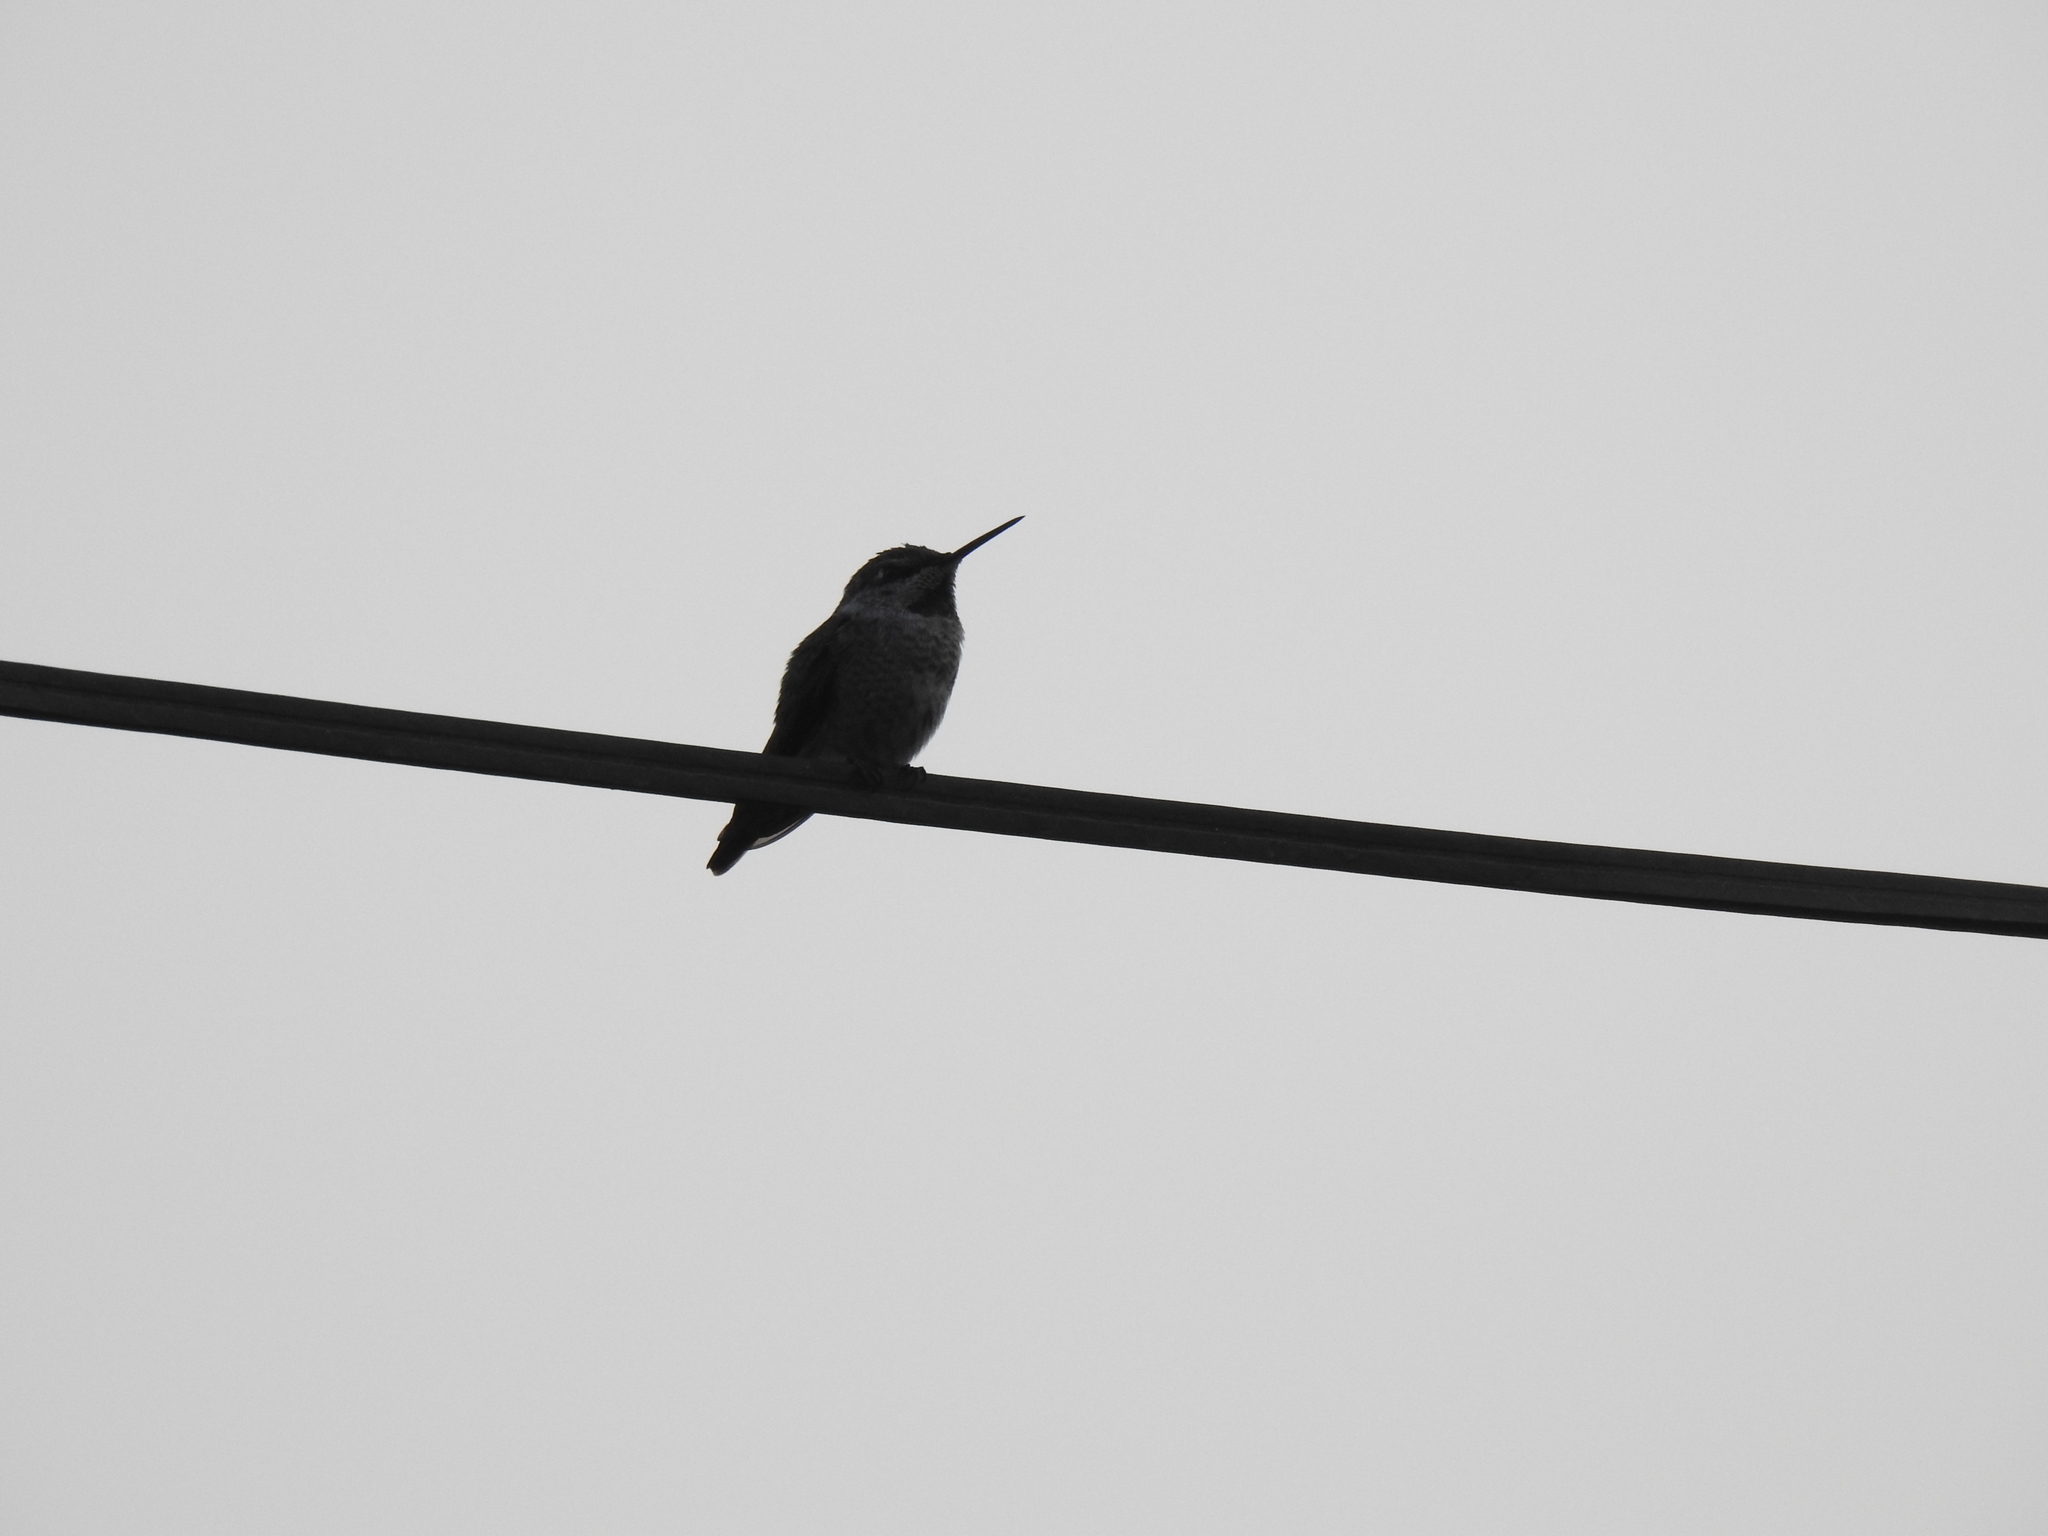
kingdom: Animalia
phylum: Chordata
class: Aves
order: Apodiformes
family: Trochilidae
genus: Calypte
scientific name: Calypte anna
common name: Anna's hummingbird
